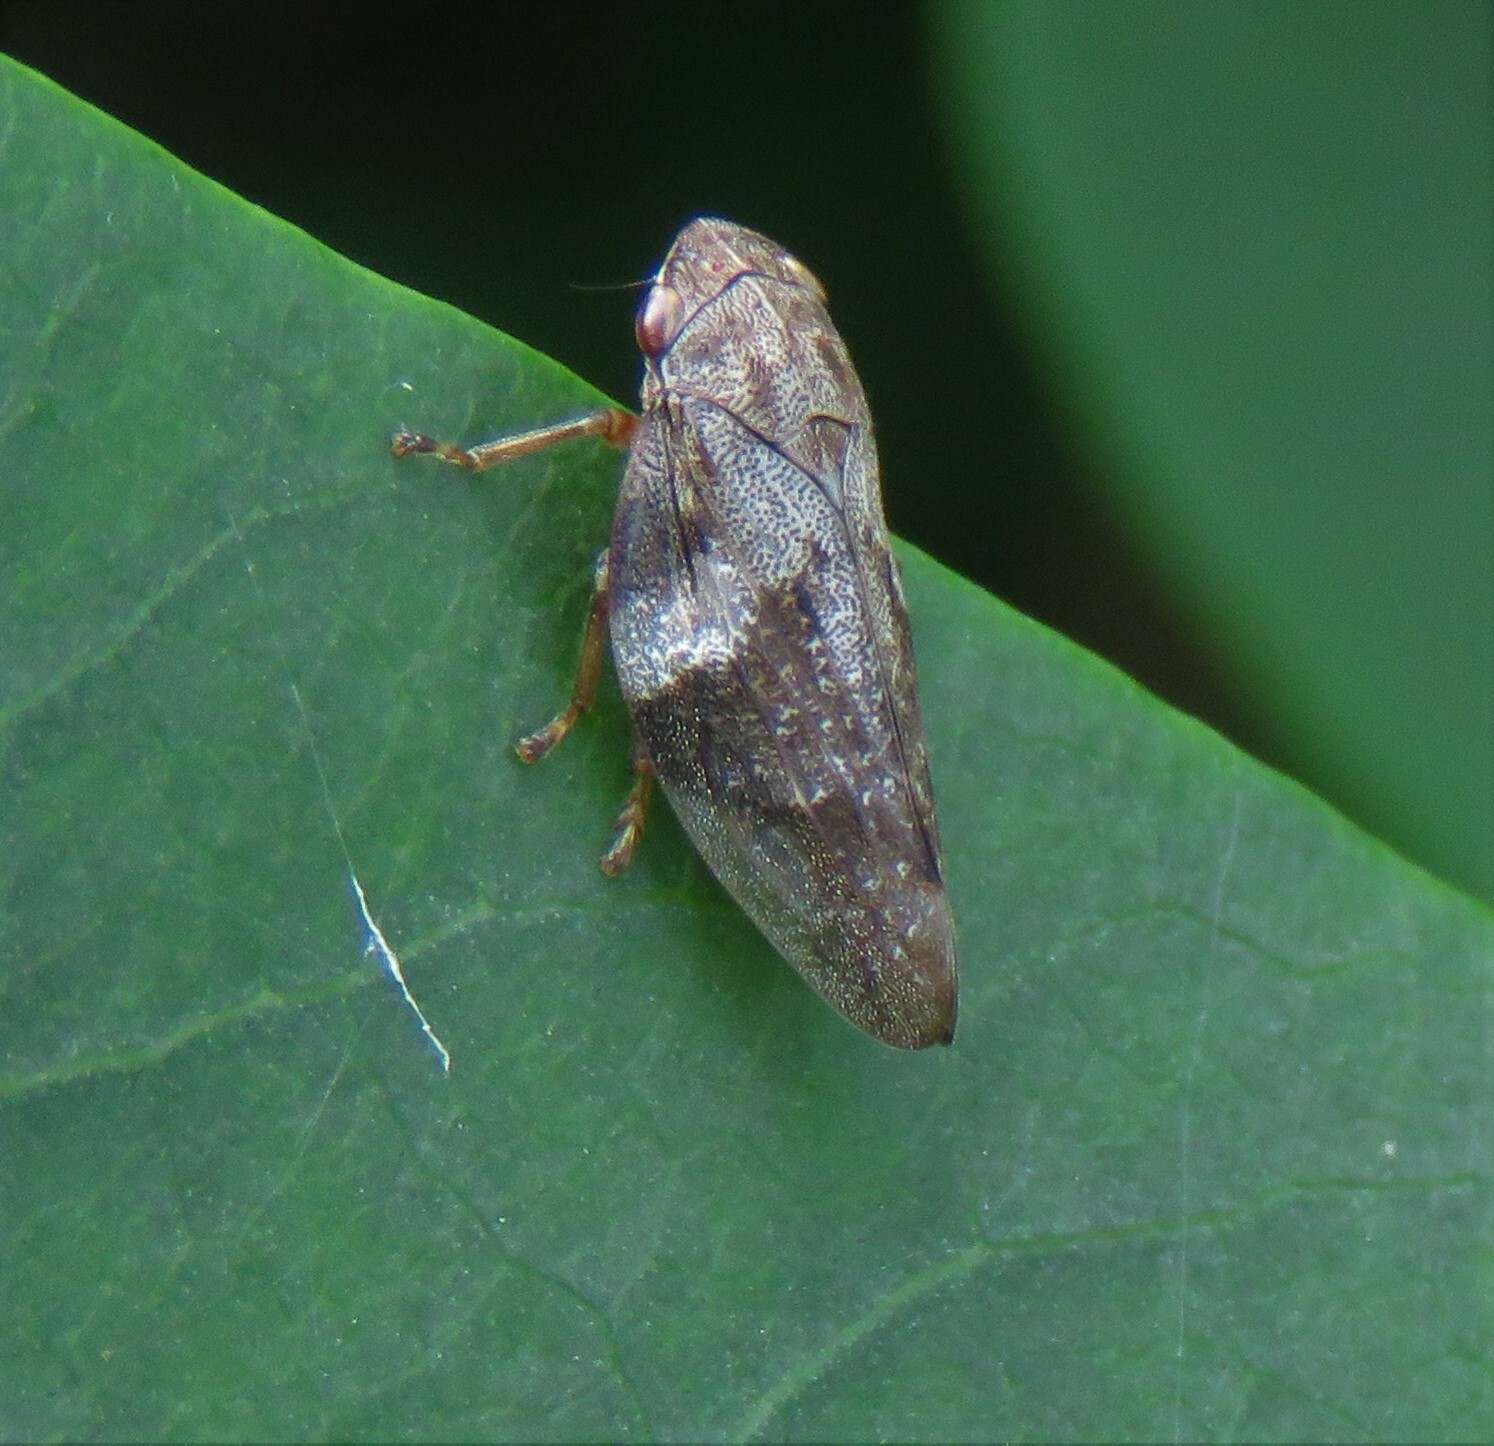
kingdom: Animalia
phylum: Arthropoda
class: Insecta
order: Hemiptera
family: Aphrophoridae
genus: Aphrophora
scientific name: Aphrophora alni
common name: European alder spittlebug
